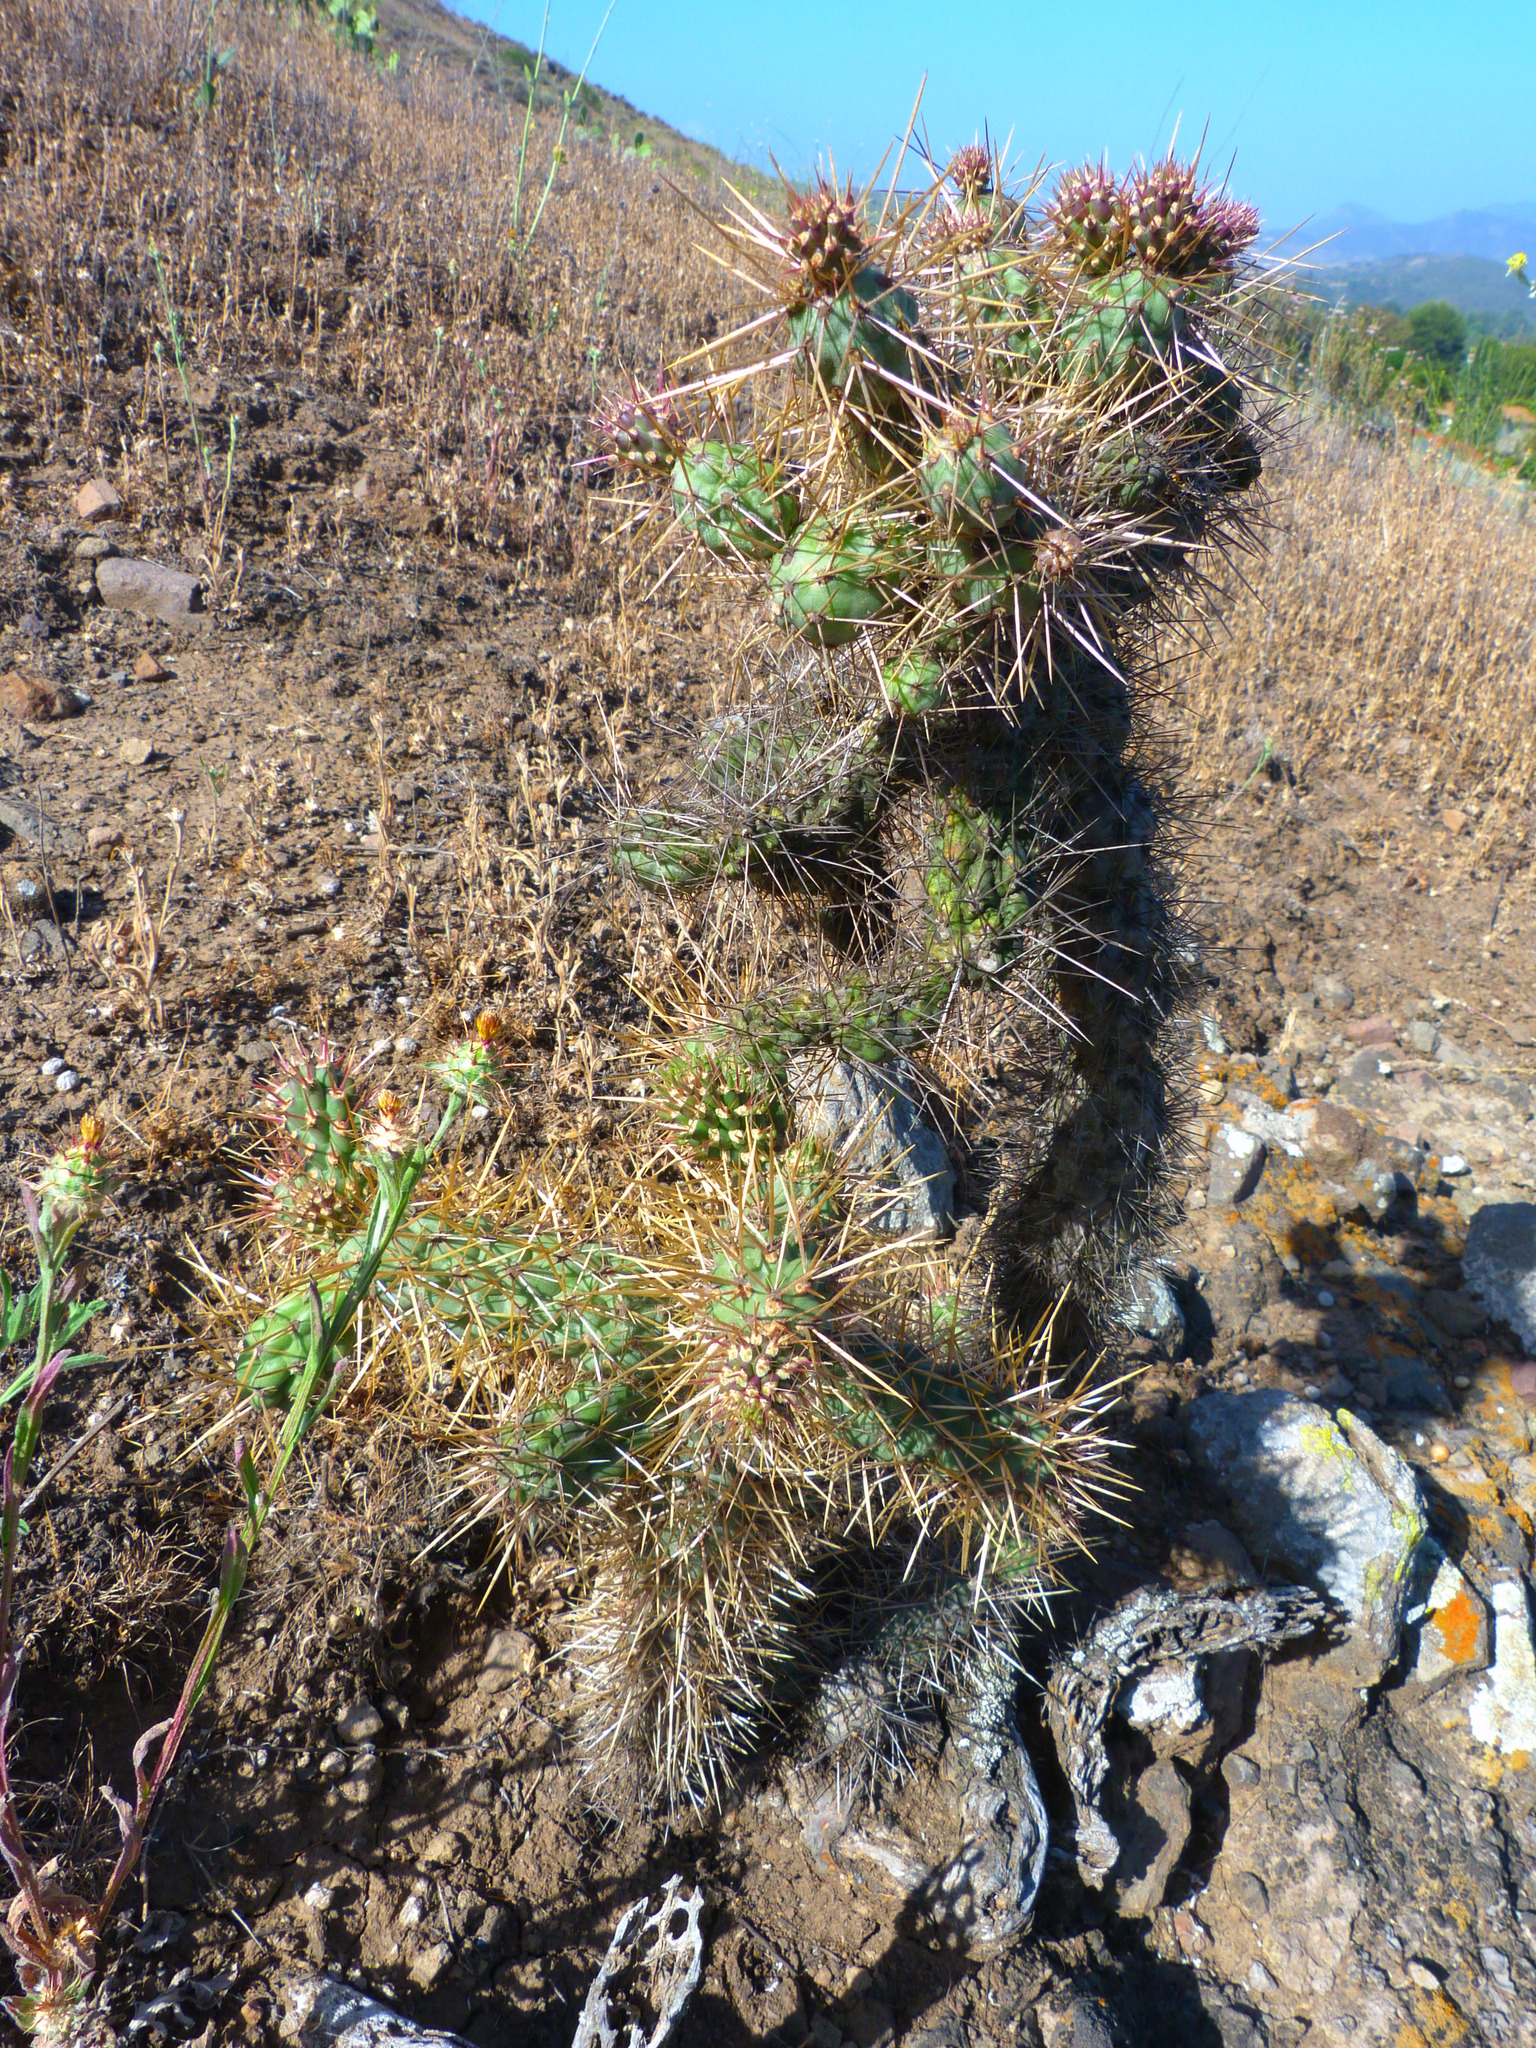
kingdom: Plantae
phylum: Tracheophyta
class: Magnoliopsida
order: Caryophyllales
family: Cactaceae
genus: Cylindropuntia
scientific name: Cylindropuntia prolifera
